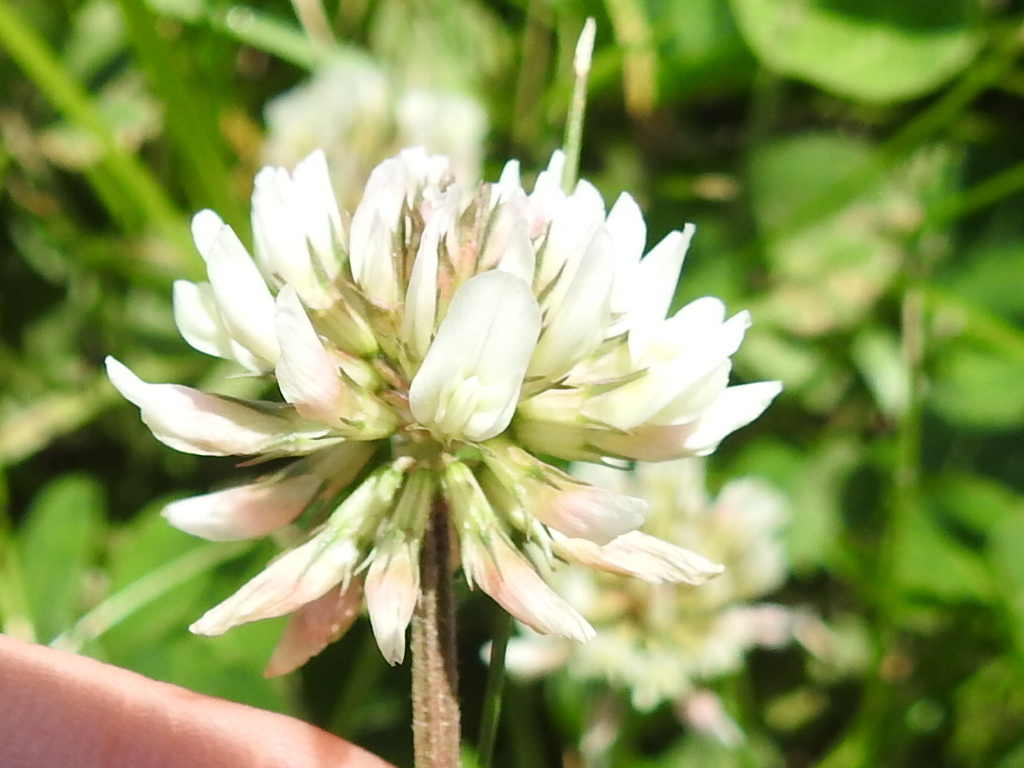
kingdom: Plantae
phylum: Tracheophyta
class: Magnoliopsida
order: Fabales
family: Fabaceae
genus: Trifolium
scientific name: Trifolium repens
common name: White clover
